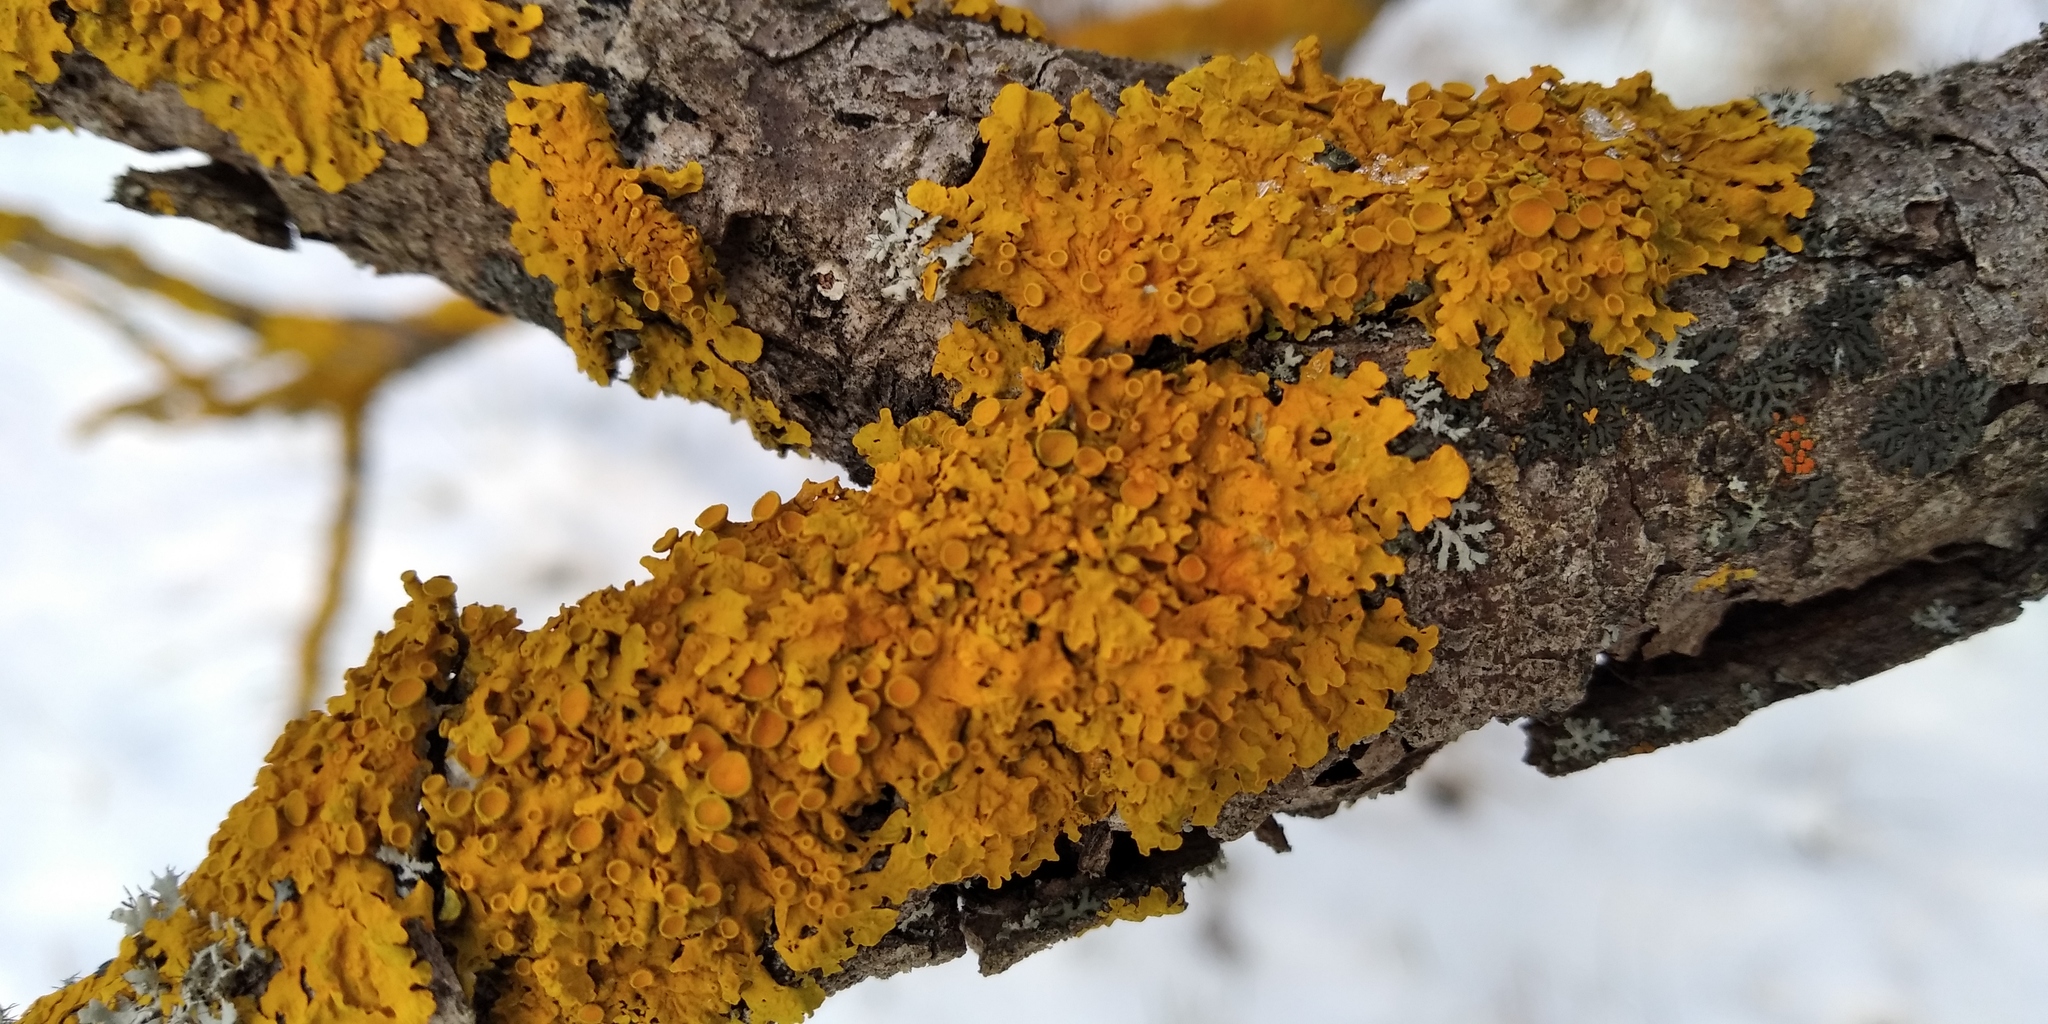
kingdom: Fungi
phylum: Ascomycota
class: Lecanoromycetes
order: Teloschistales
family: Teloschistaceae
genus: Xanthoria
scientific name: Xanthoria parietina
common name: Common orange lichen
